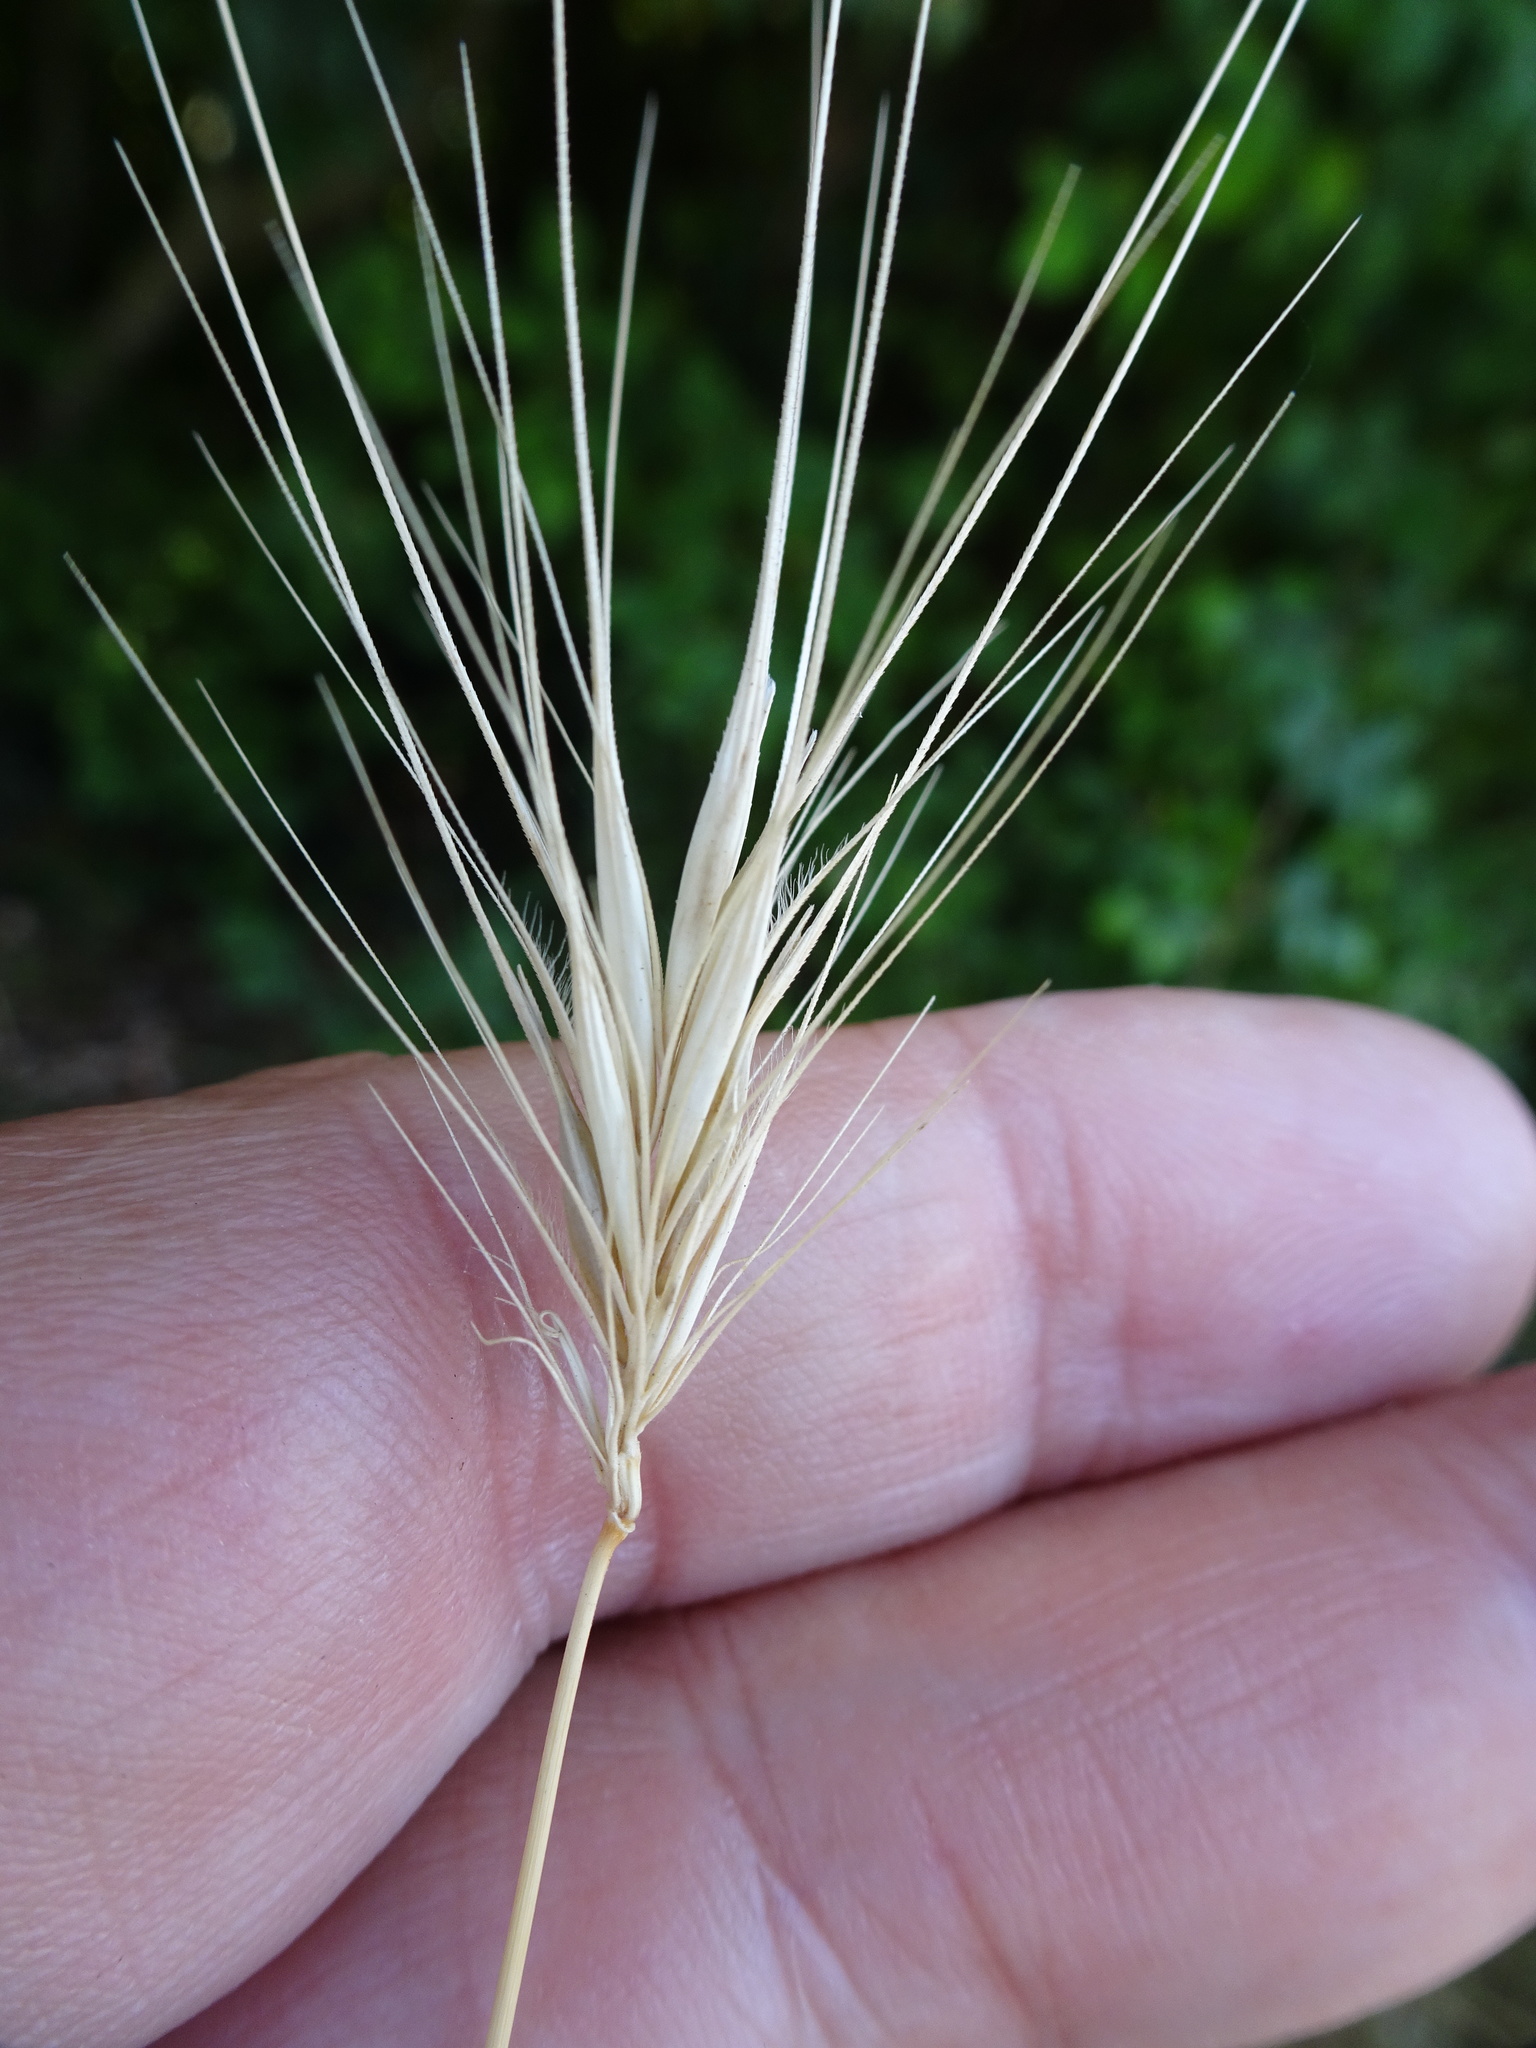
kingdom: Plantae
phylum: Tracheophyta
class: Liliopsida
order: Poales
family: Poaceae
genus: Hordeum
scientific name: Hordeum murinum
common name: Wall barley
